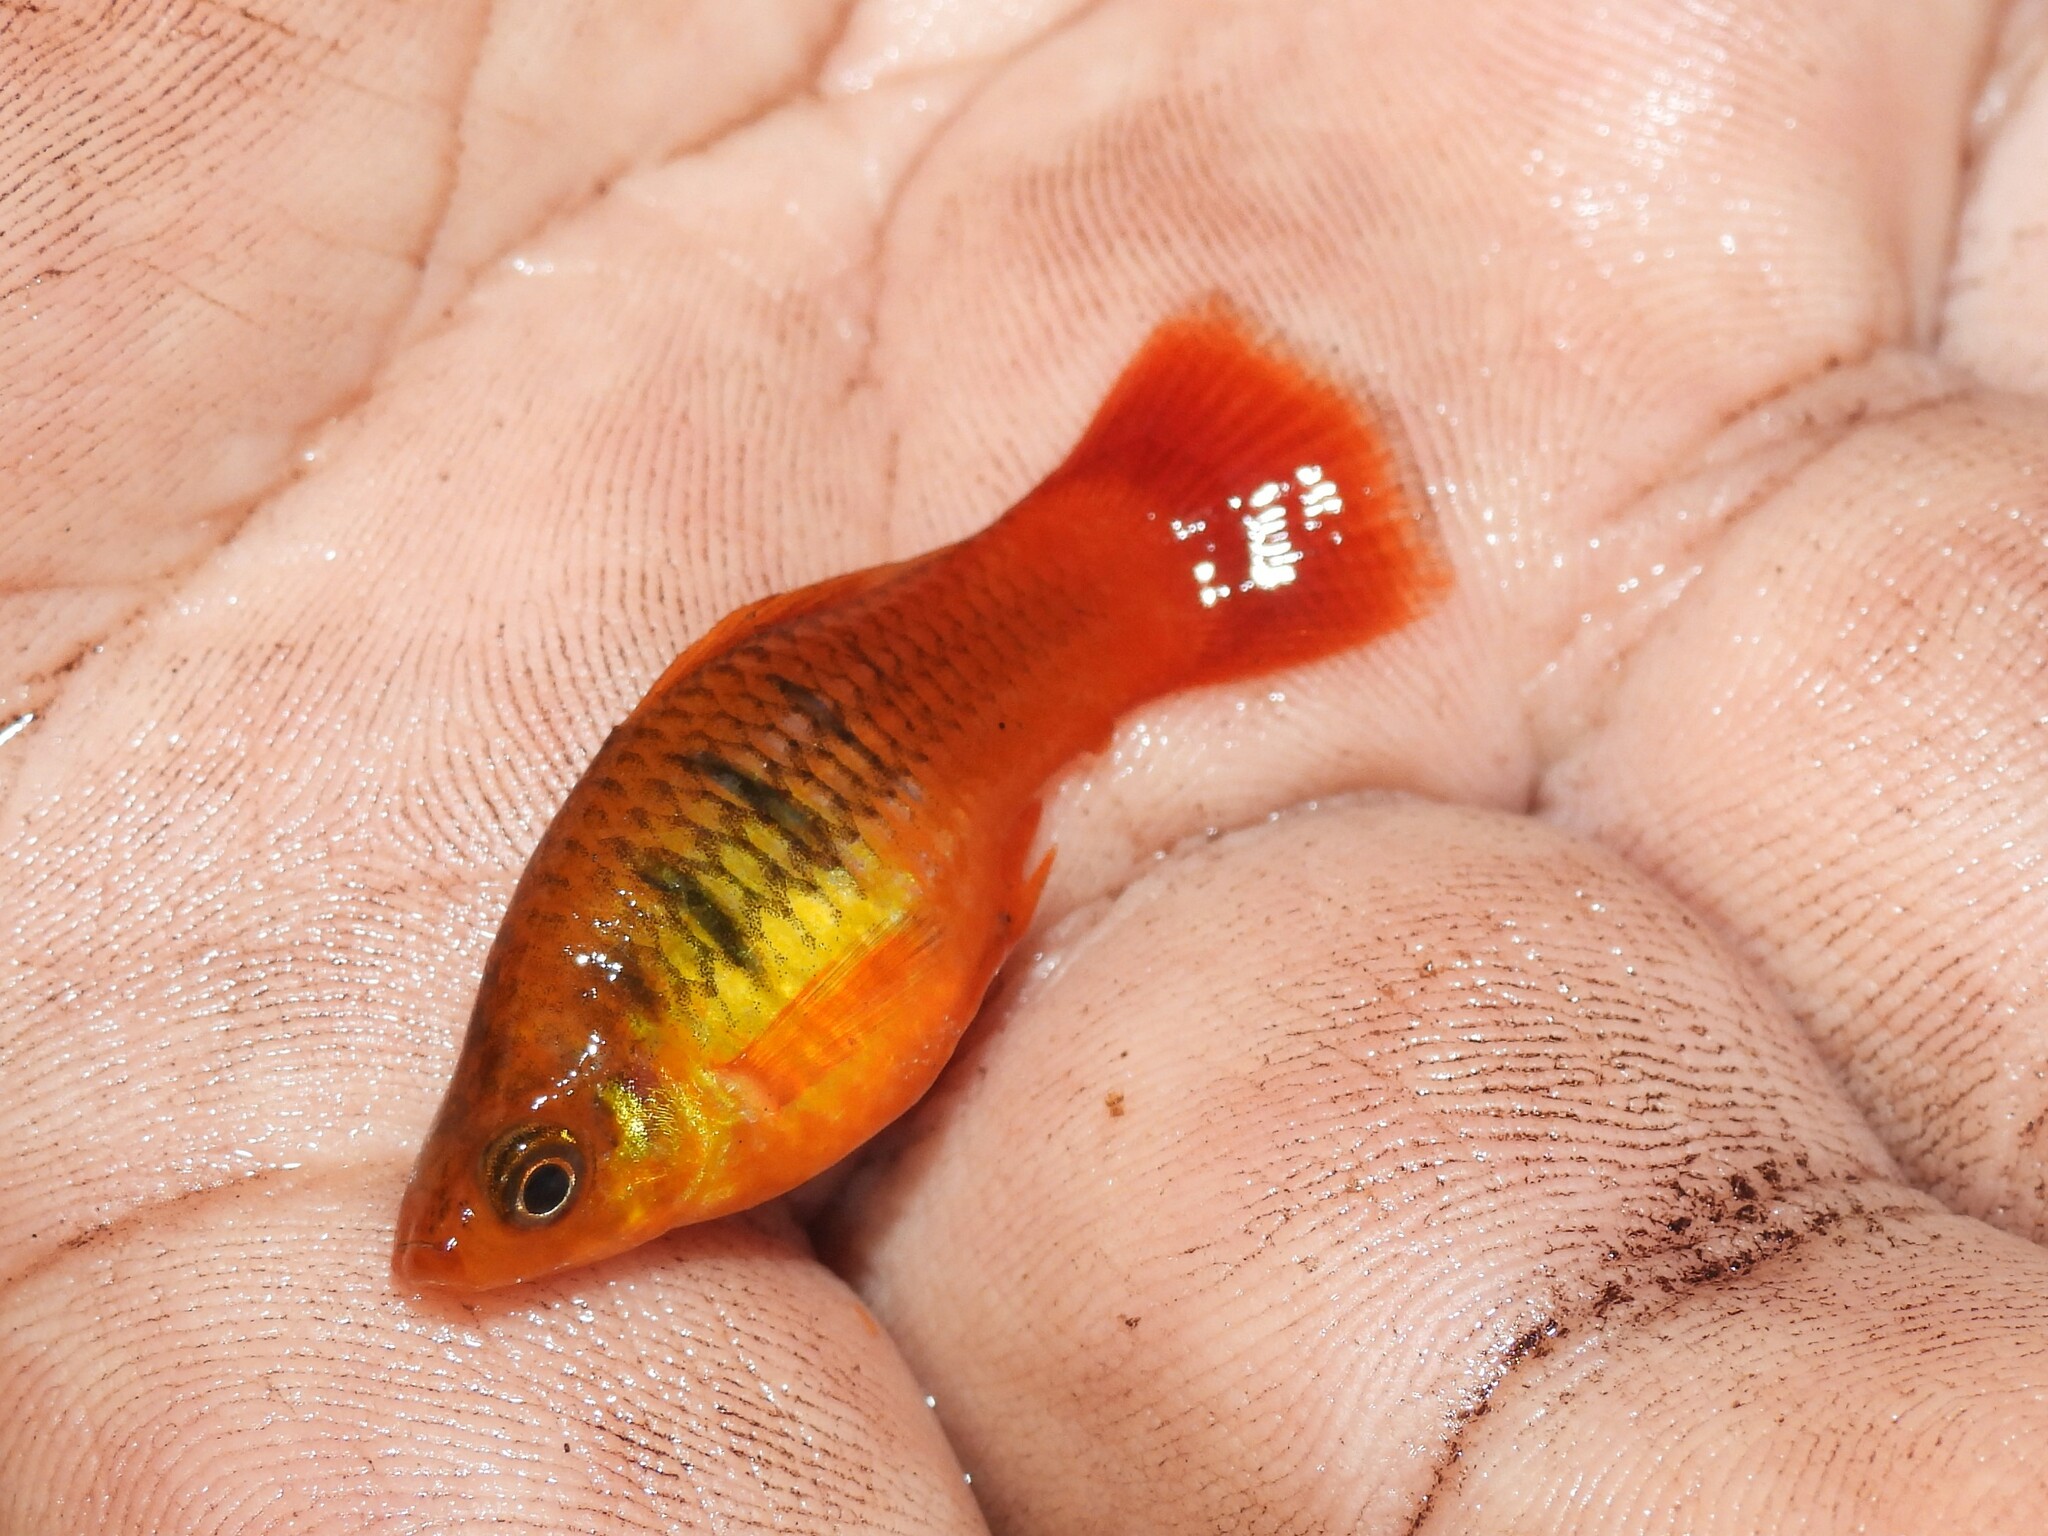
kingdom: Animalia
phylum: Chordata
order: Cyprinodontiformes
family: Poeciliidae
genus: Xiphophorus
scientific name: Xiphophorus variatus
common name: Variable platyfish
